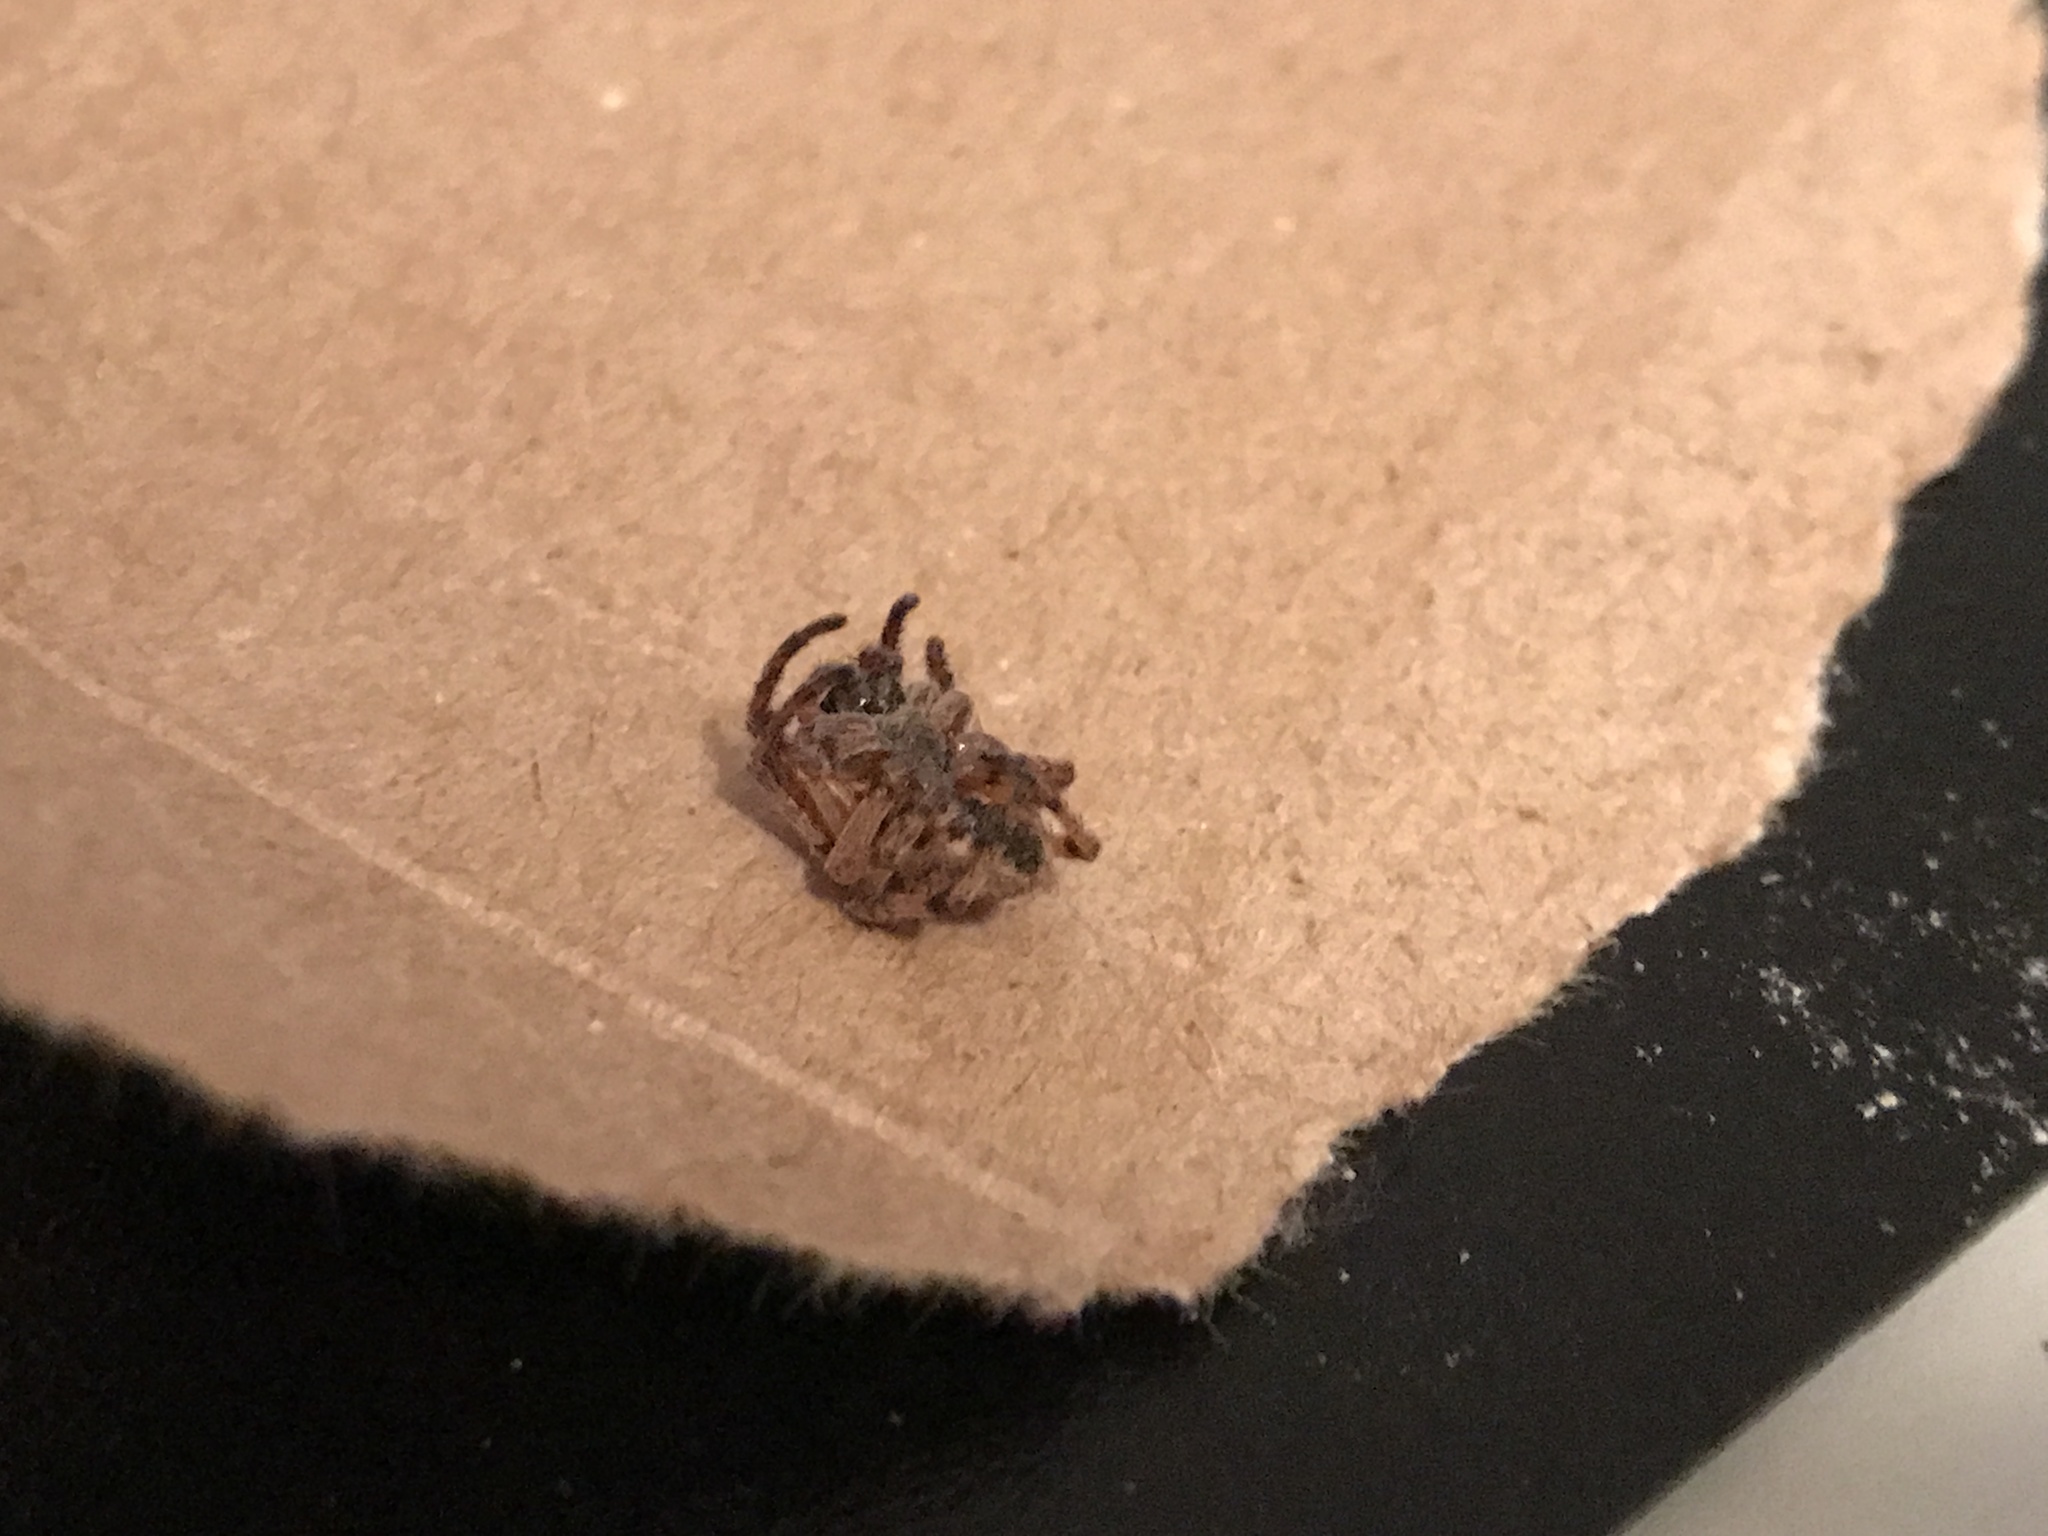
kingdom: Animalia
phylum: Arthropoda
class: Arachnida
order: Araneae
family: Araneidae
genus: Larinioides
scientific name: Larinioides cornutus
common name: Furrow orbweaver
